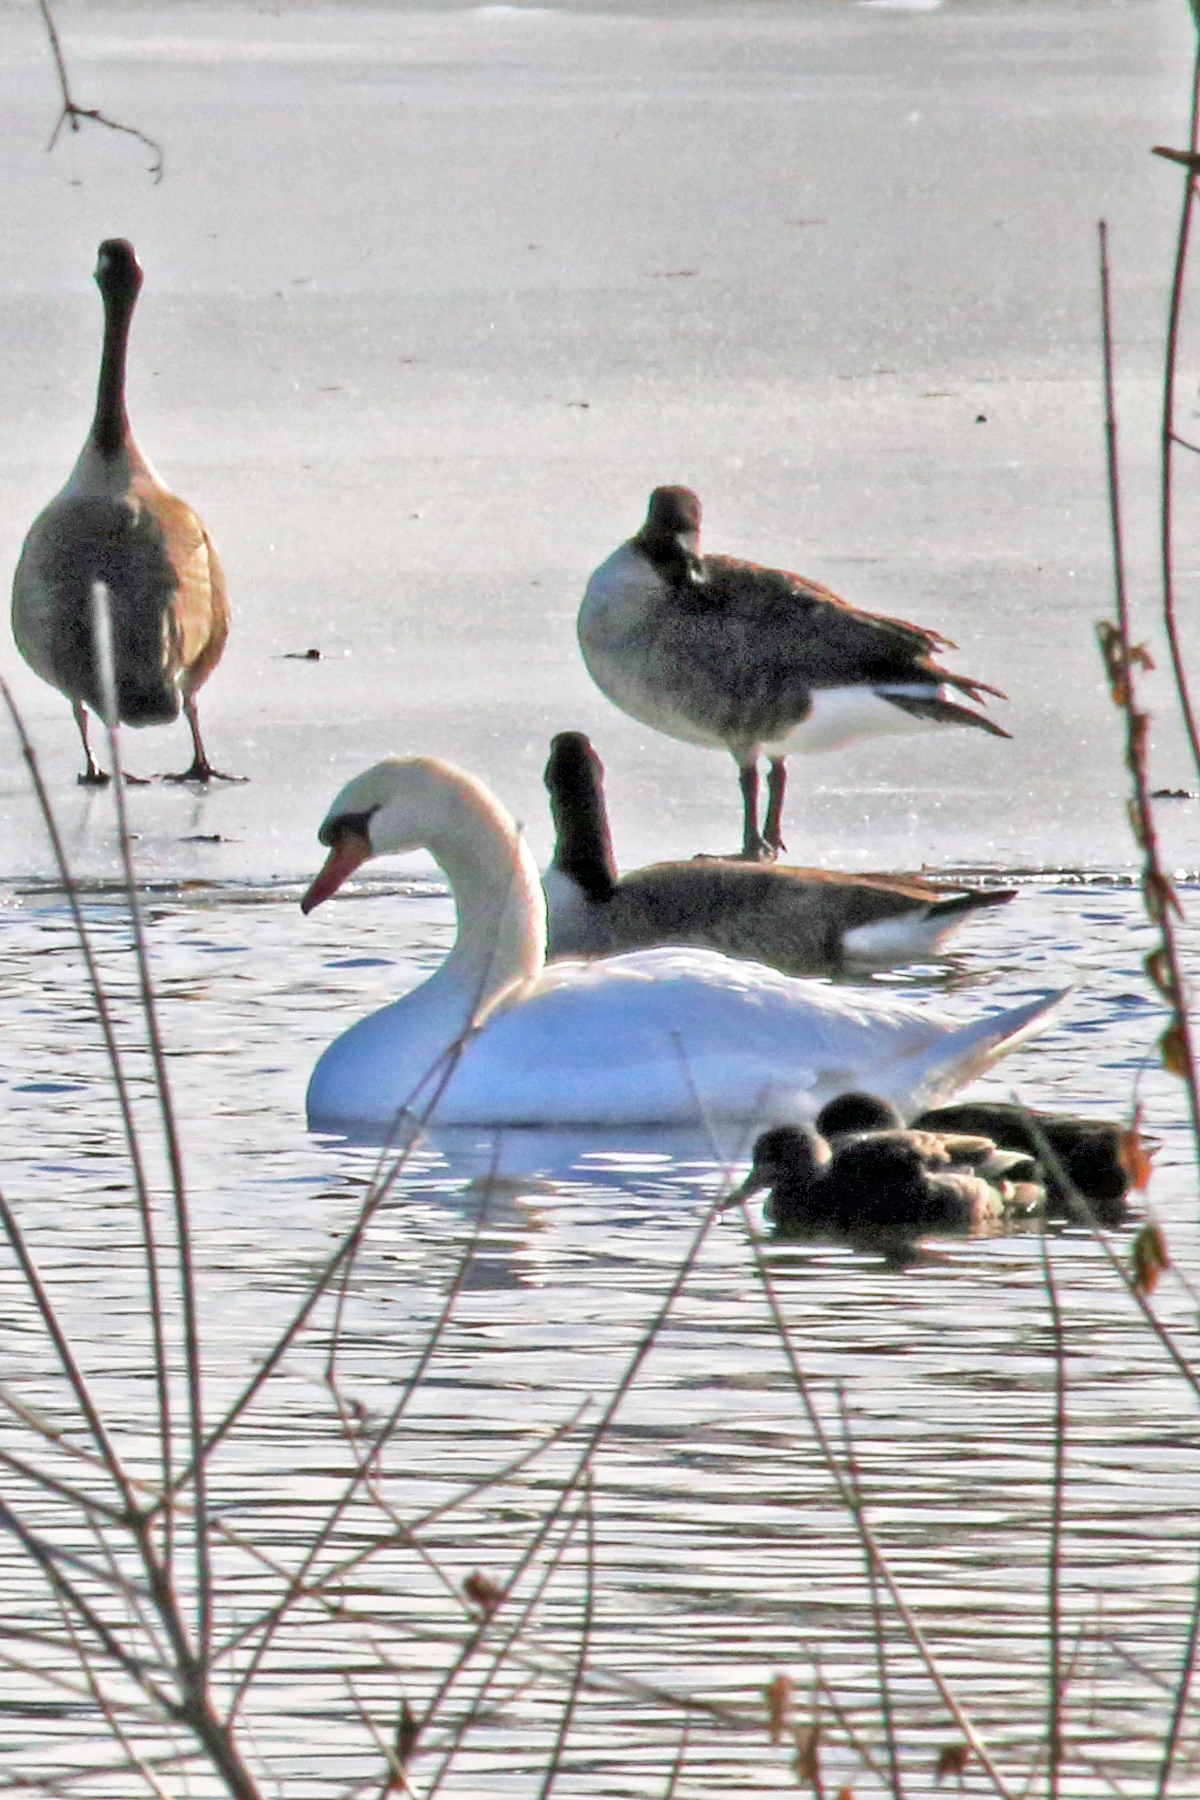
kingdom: Animalia
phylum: Chordata
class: Aves
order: Anseriformes
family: Anatidae
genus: Cygnus
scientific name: Cygnus olor
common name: Mute swan
